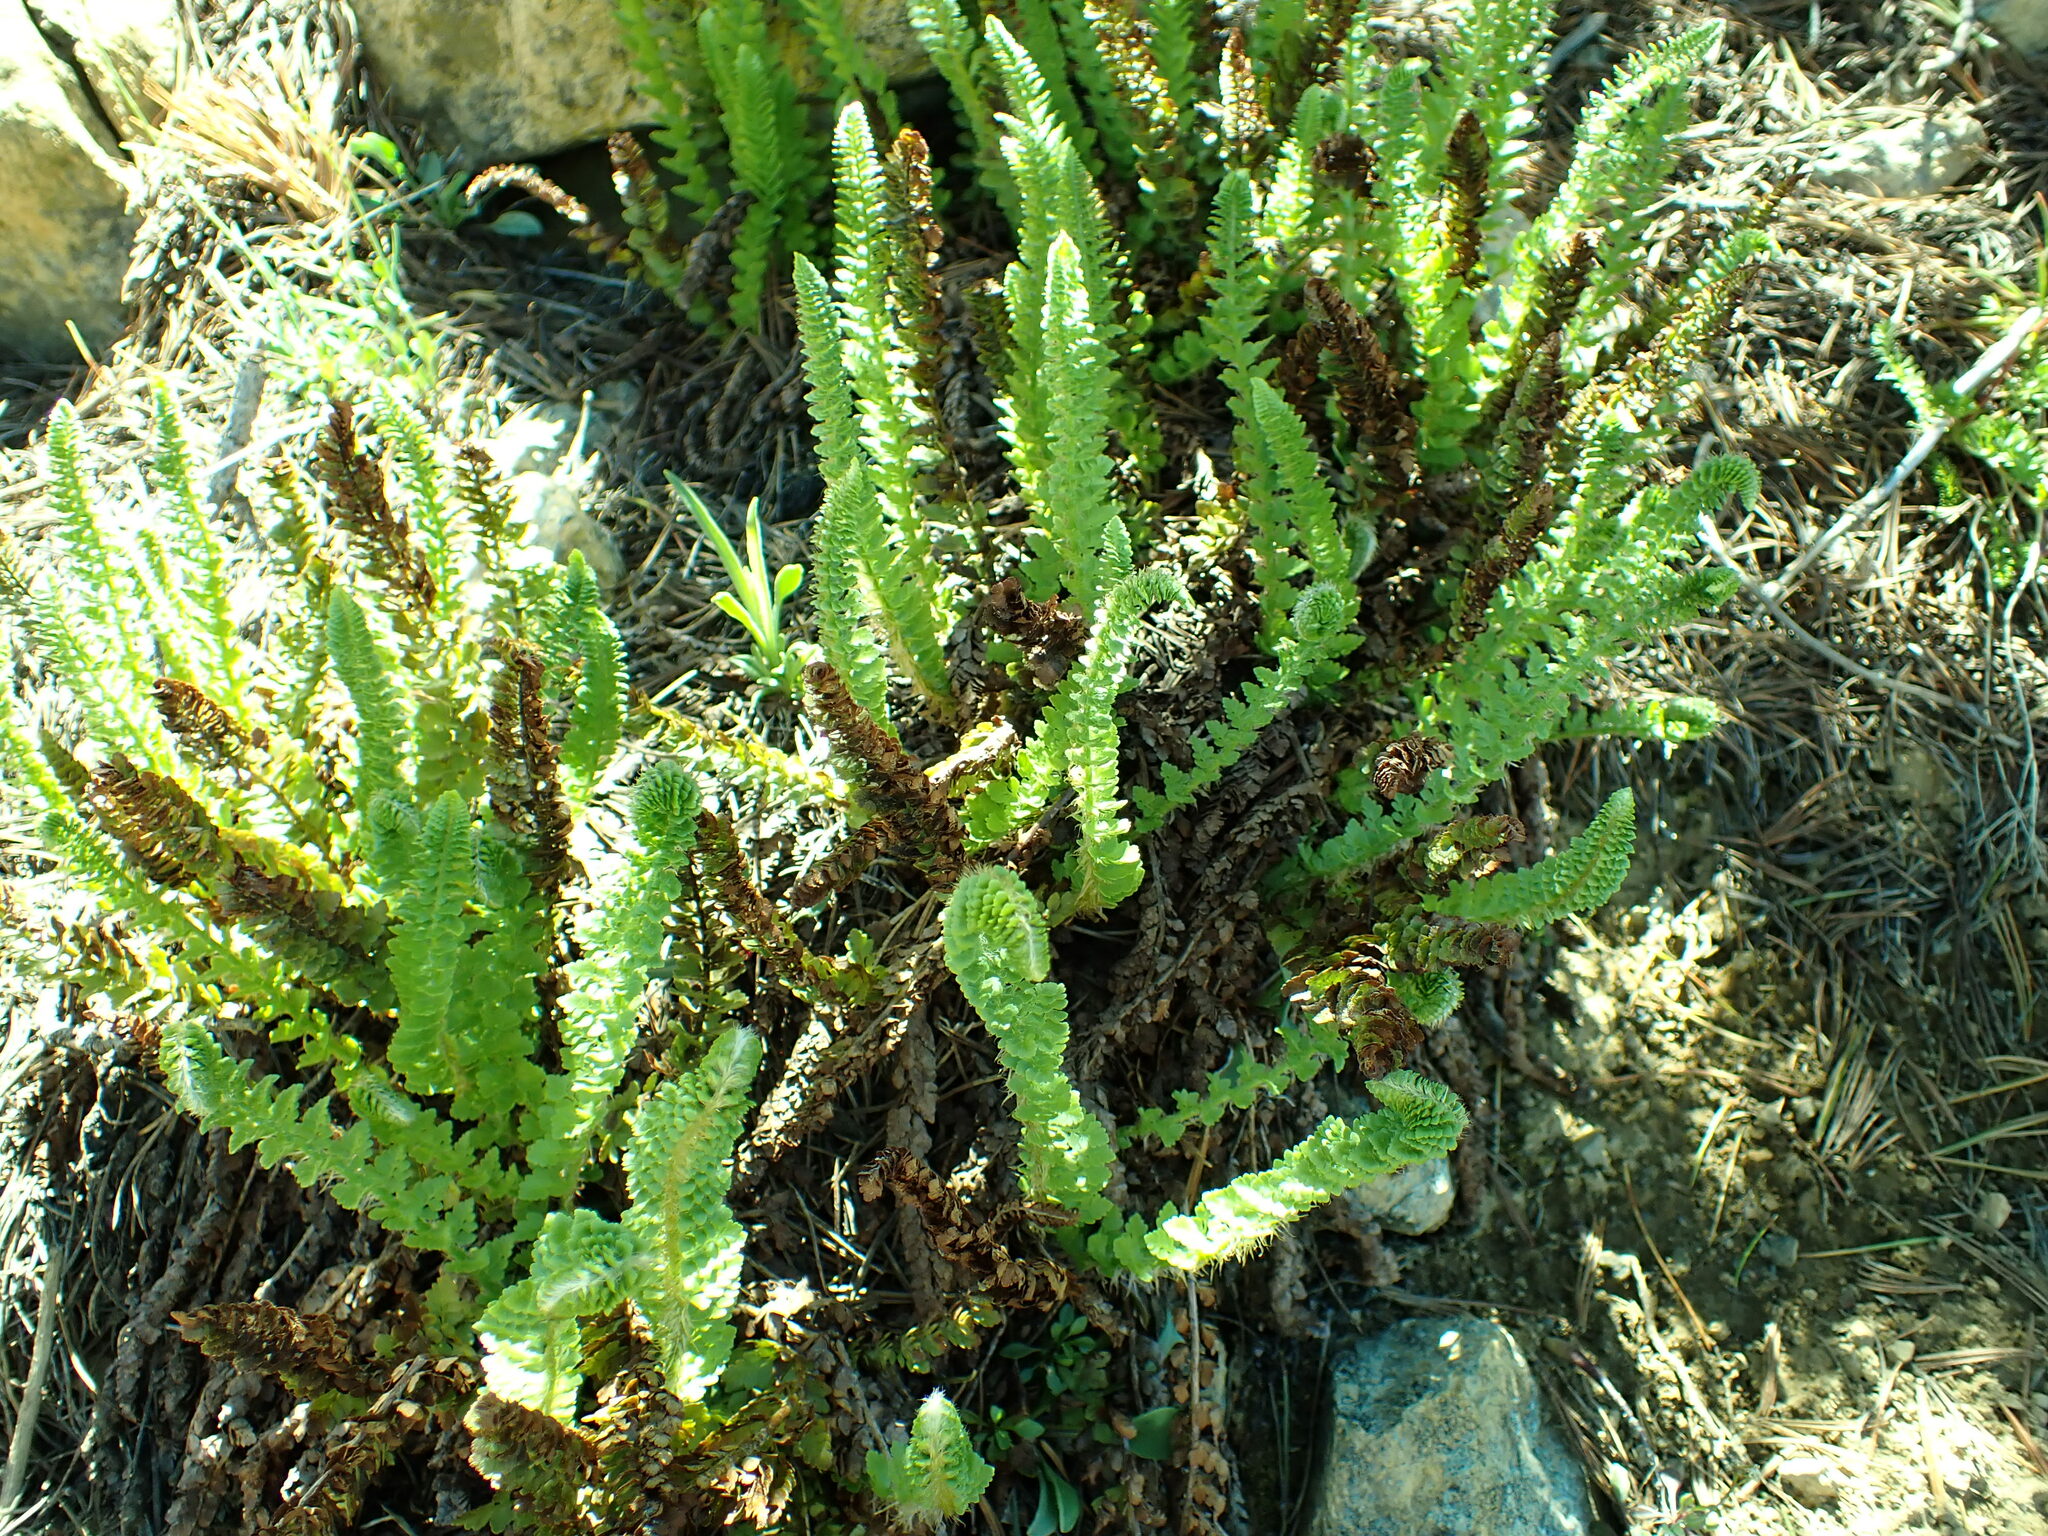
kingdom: Plantae
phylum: Tracheophyta
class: Polypodiopsida
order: Polypodiales
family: Dryopteridaceae
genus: Polystichum
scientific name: Polystichum lemmonii
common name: Lemmon's holly fern
